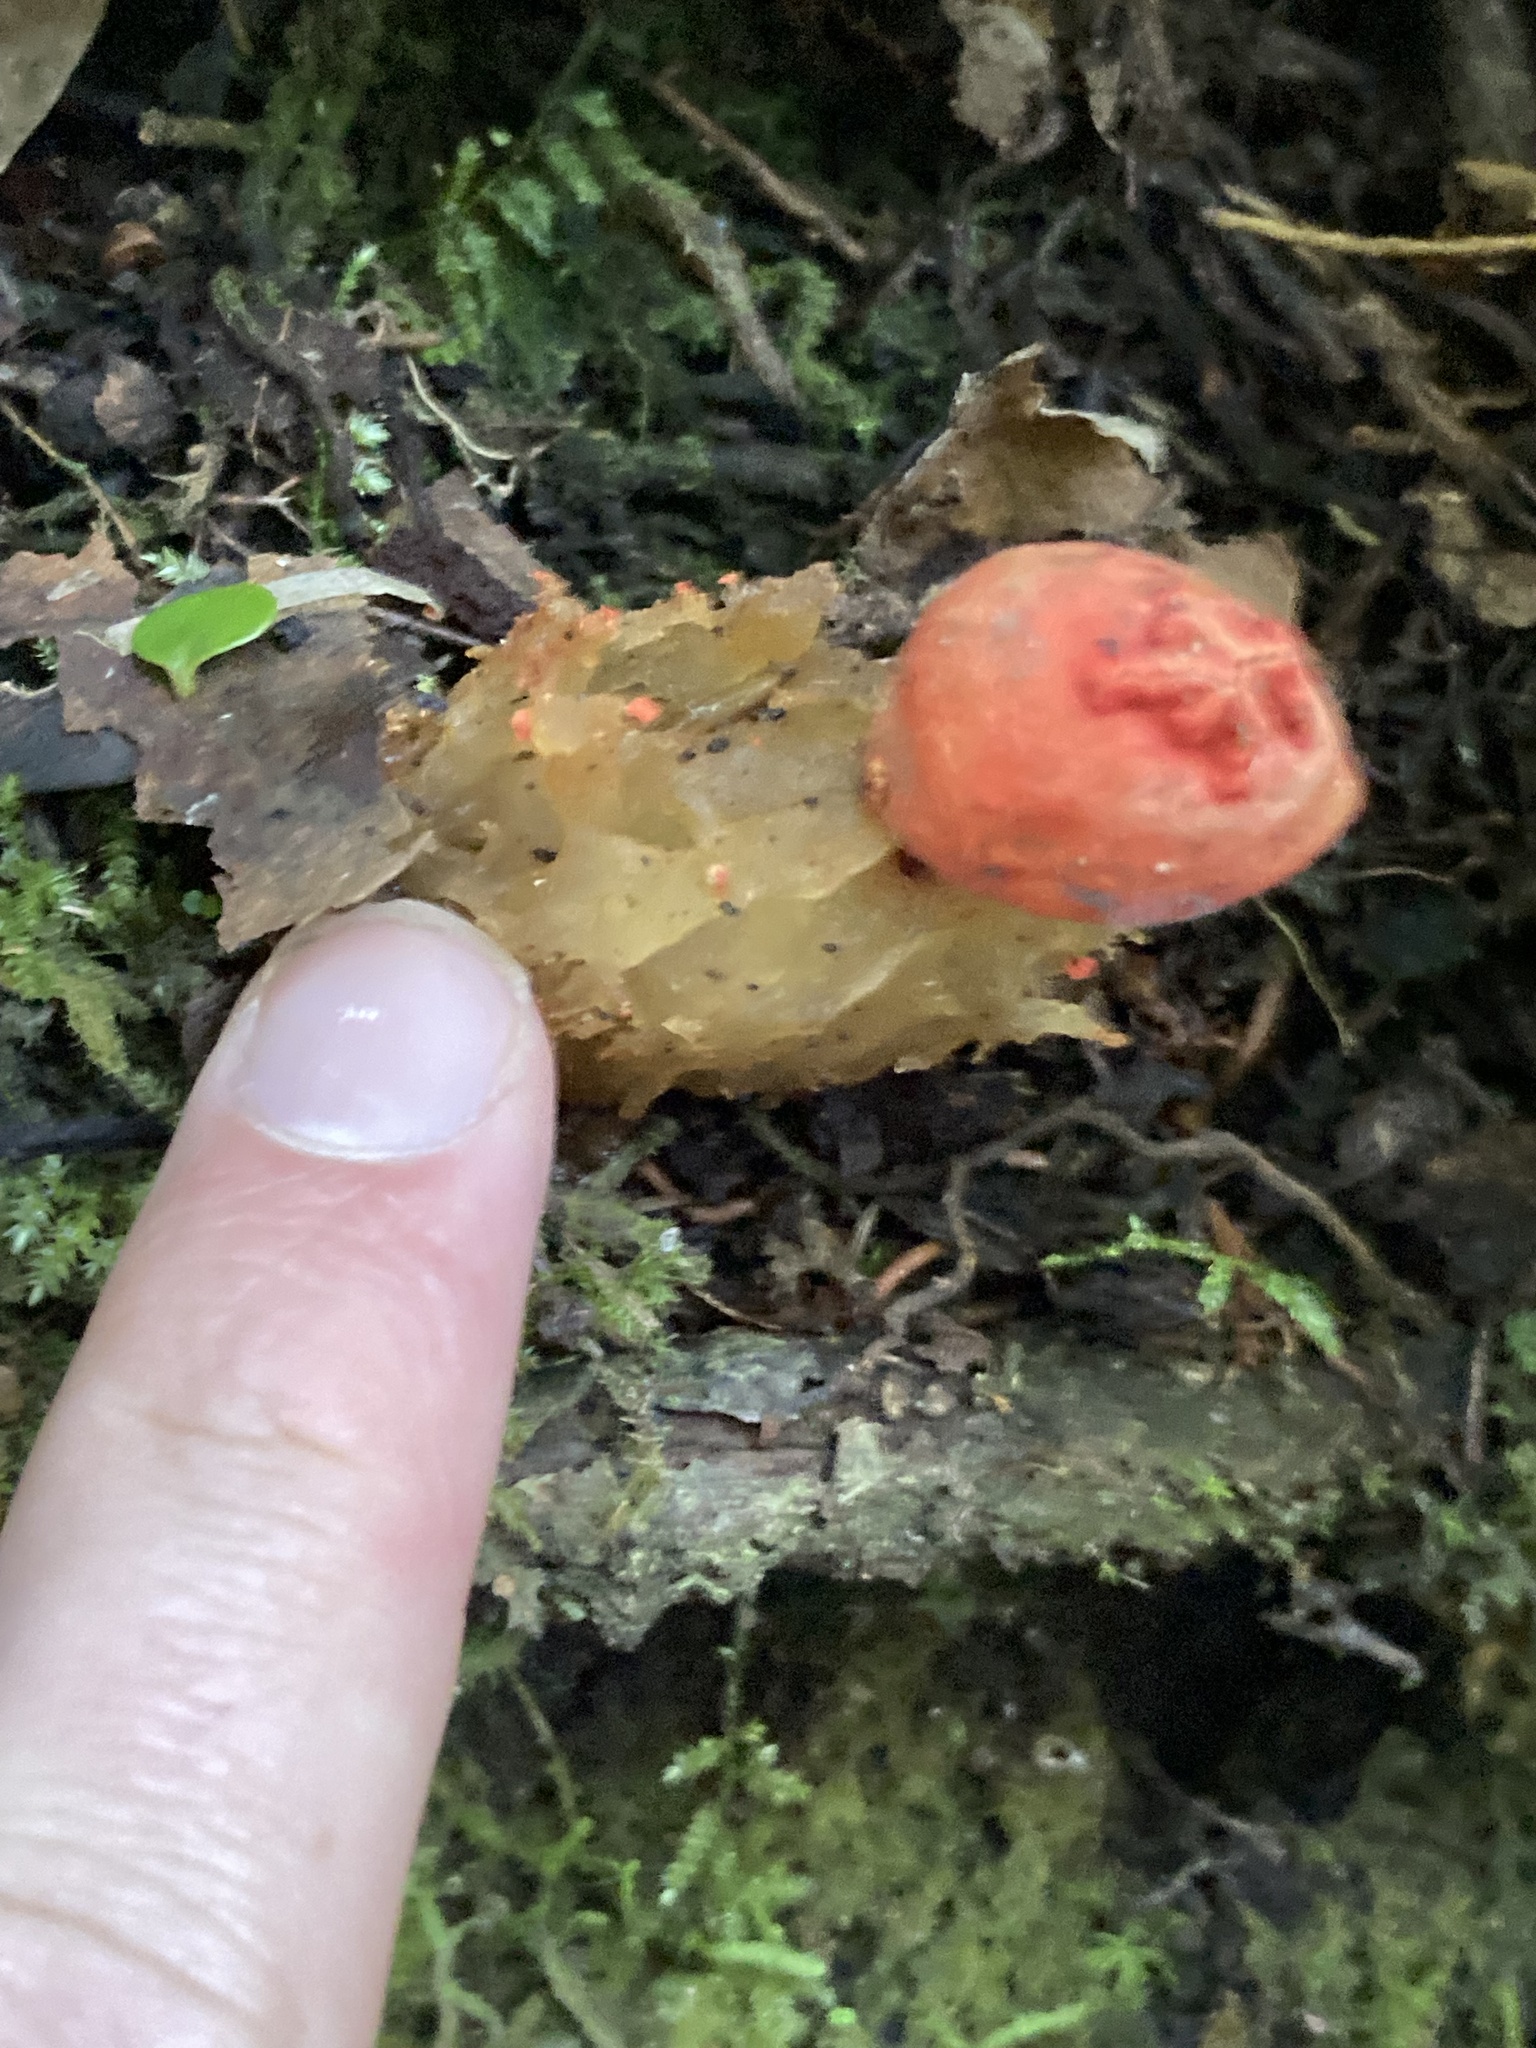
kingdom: Fungi
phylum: Basidiomycota
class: Agaricomycetes
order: Boletales
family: Calostomataceae
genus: Calostoma
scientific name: Calostoma cinnabarinum
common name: Stalked puffball-in-aspic
